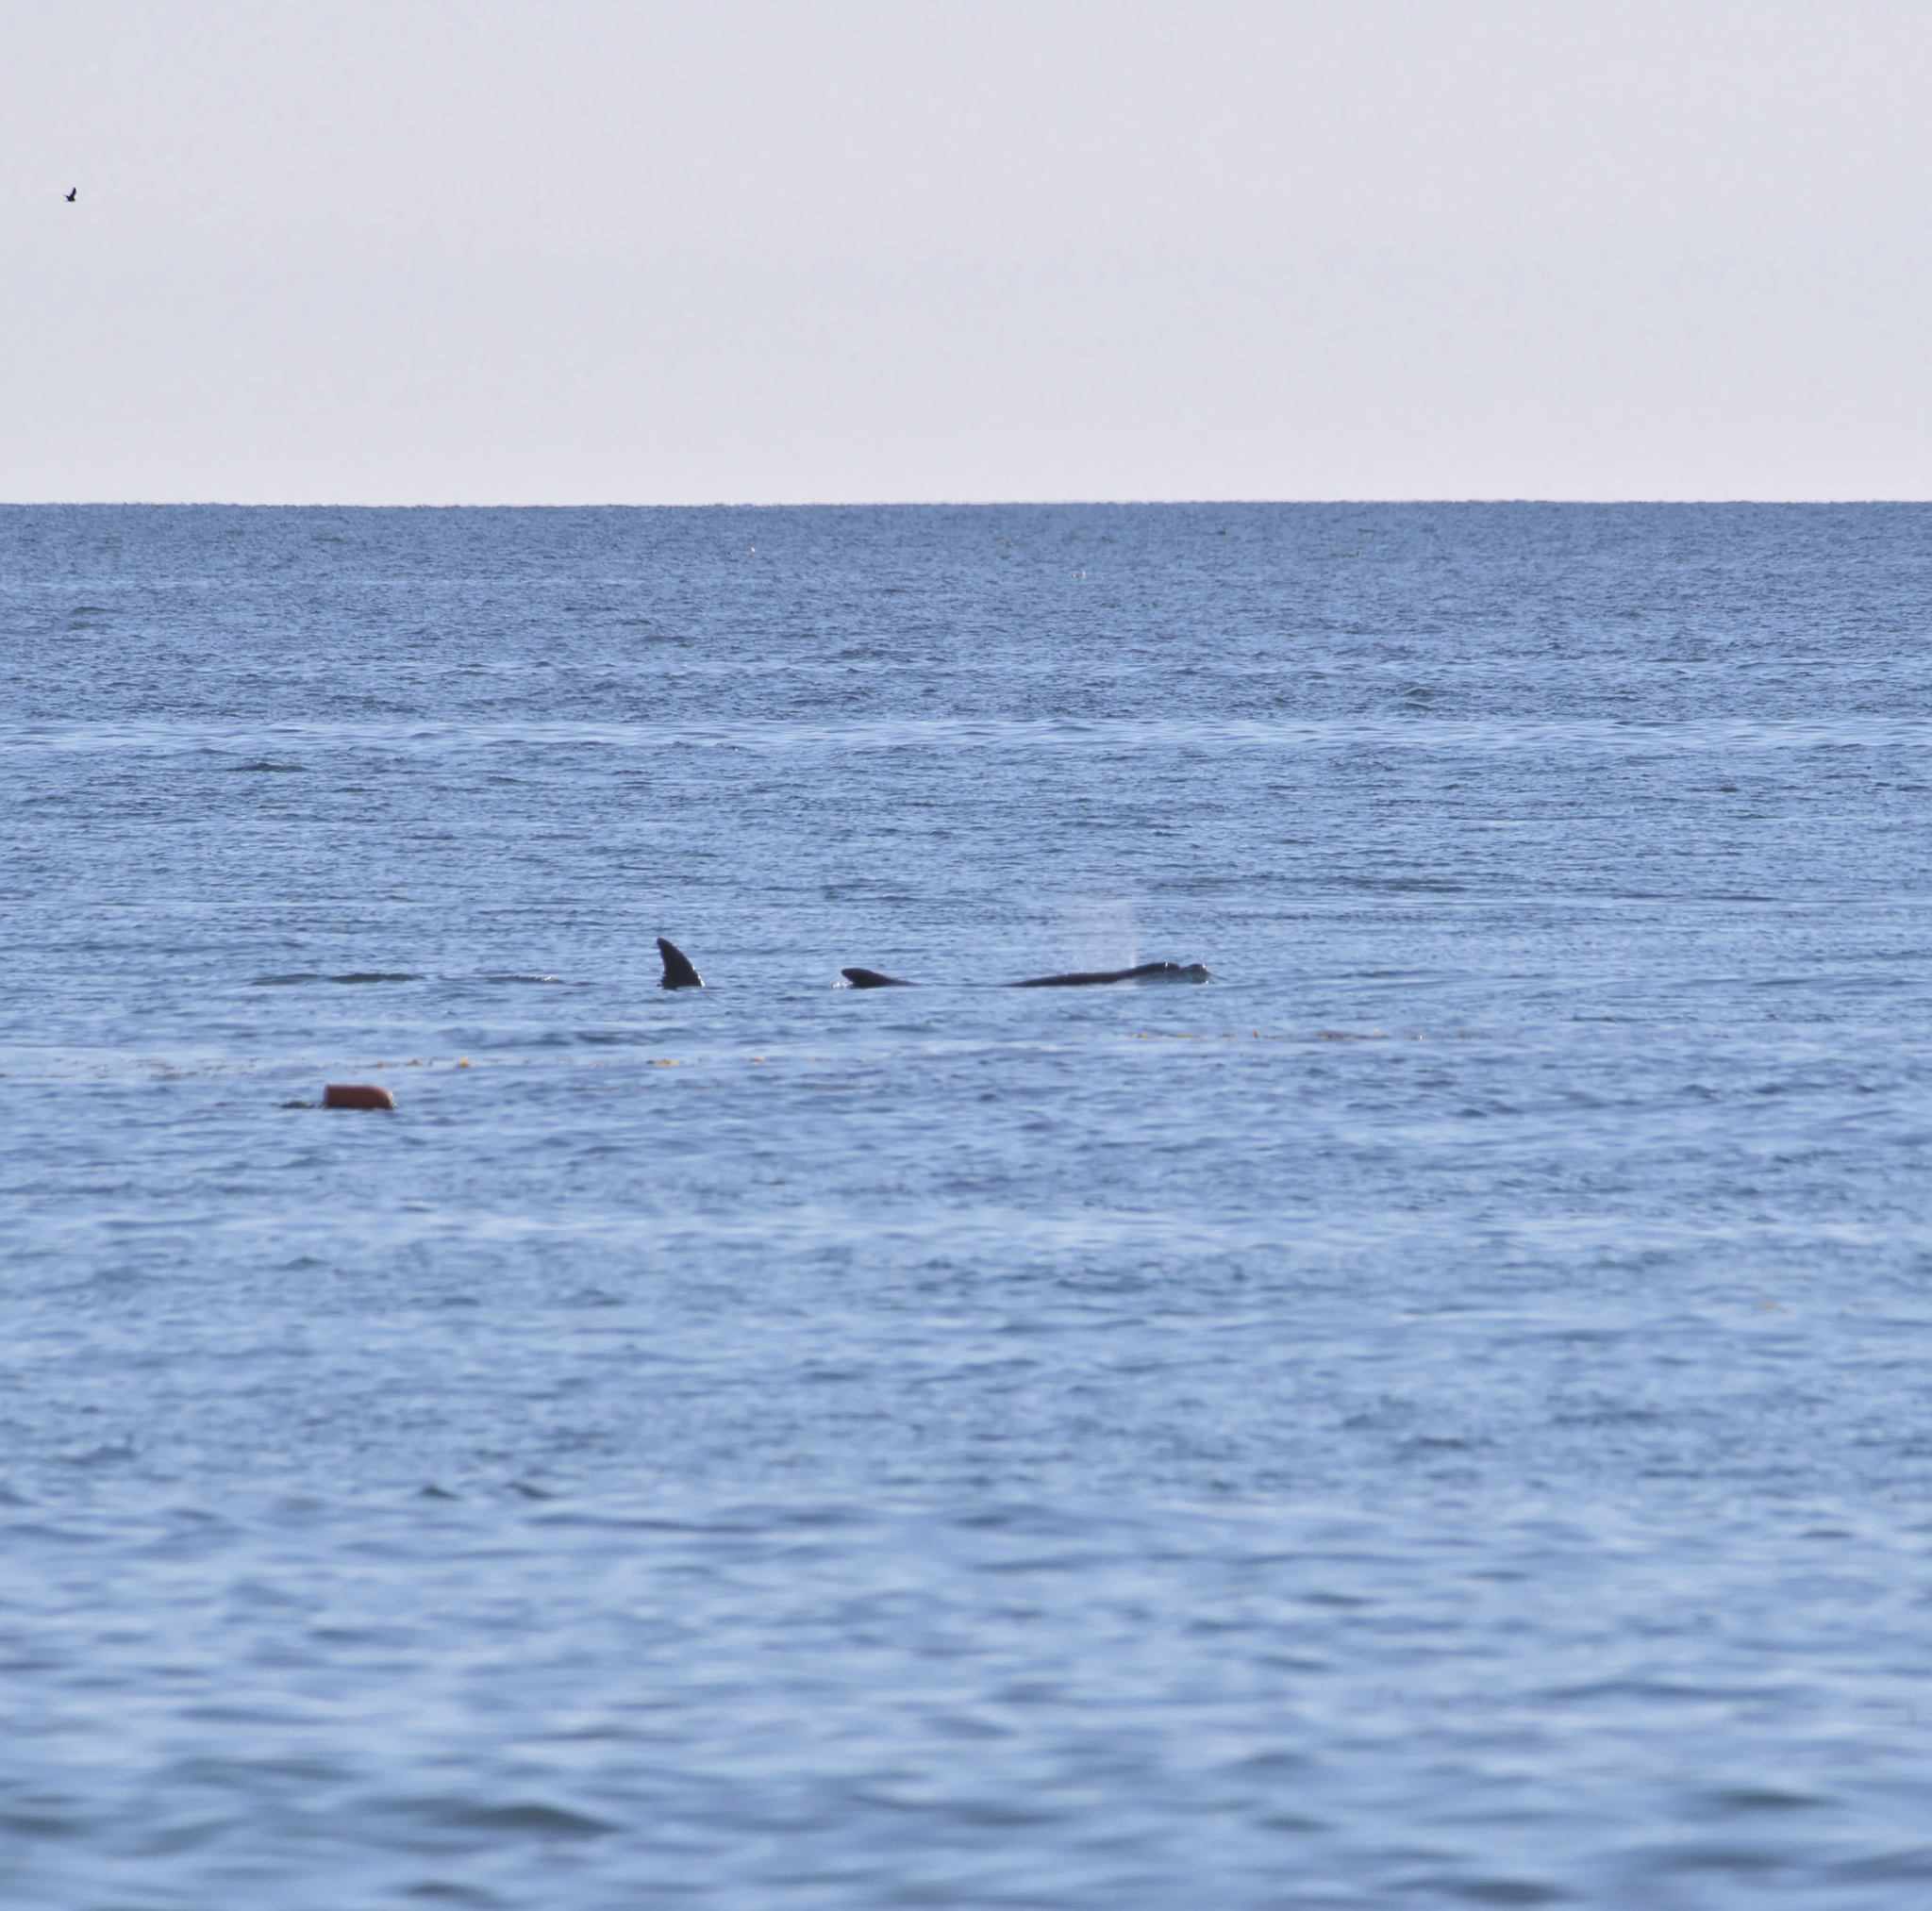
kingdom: Animalia
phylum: Chordata
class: Mammalia
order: Cetacea
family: Delphinidae
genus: Tursiops
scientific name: Tursiops truncatus
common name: Bottlenose dolphin
